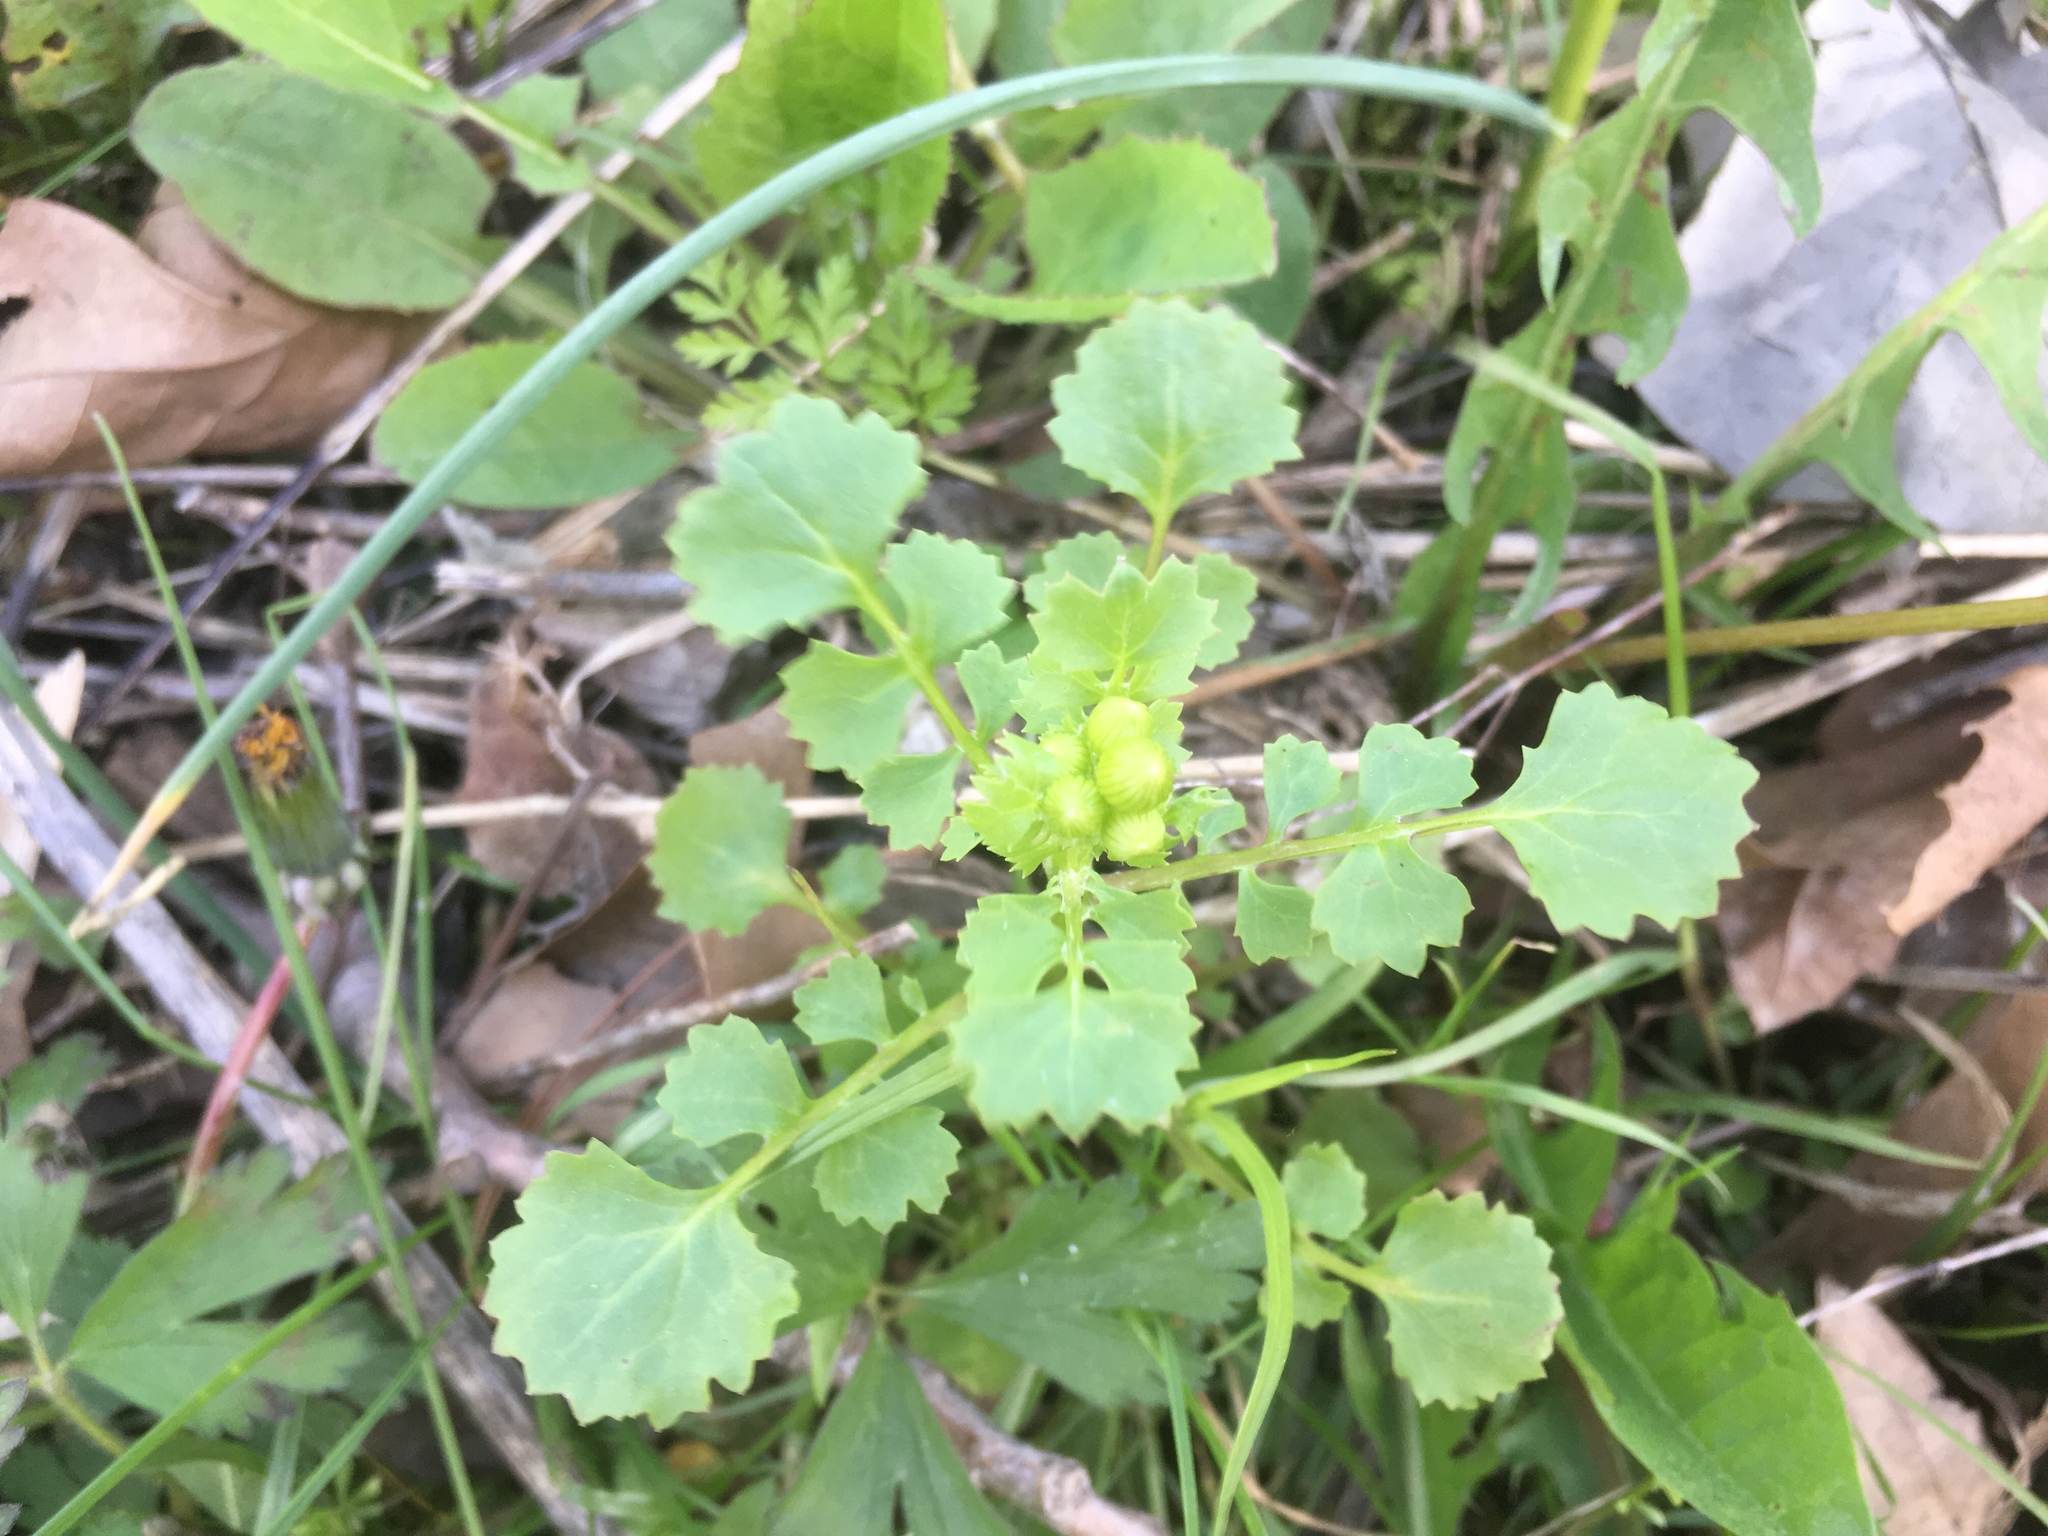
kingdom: Plantae
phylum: Tracheophyta
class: Magnoliopsida
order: Asterales
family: Asteraceae
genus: Packera
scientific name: Packera glabella
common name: Butterweed
